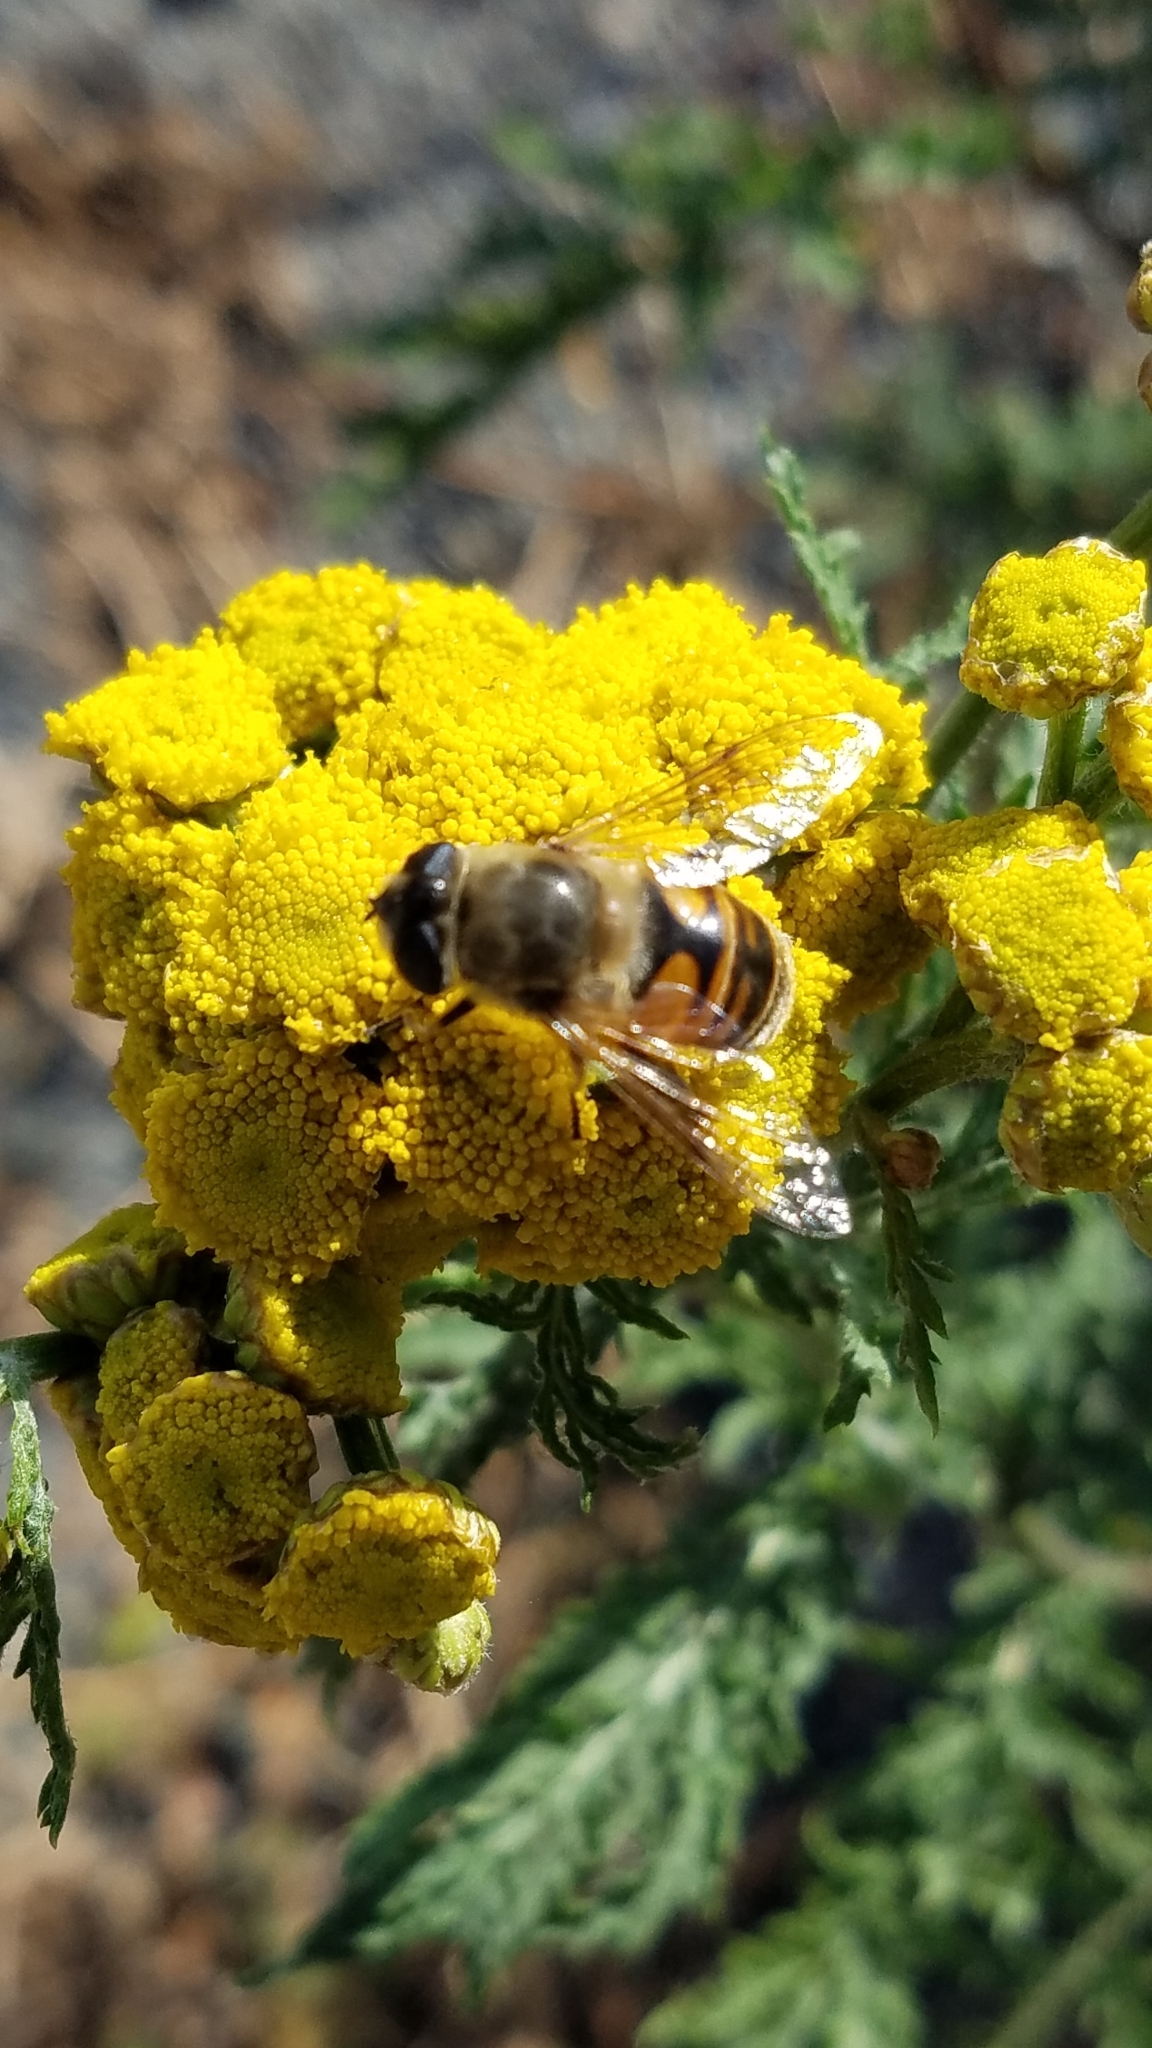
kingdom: Animalia
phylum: Arthropoda
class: Insecta
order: Diptera
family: Syrphidae
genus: Eristalis
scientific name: Eristalis tenax
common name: Drone fly
